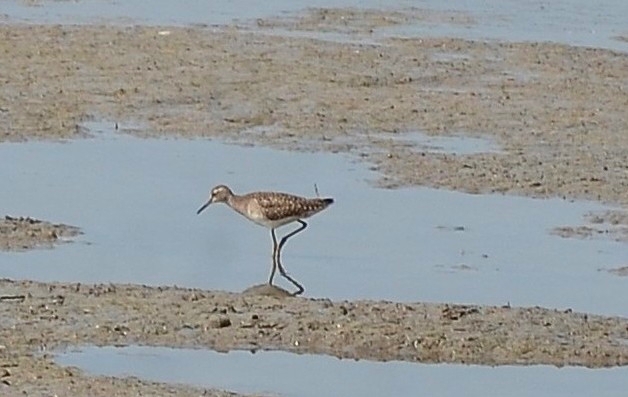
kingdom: Animalia
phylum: Chordata
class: Aves
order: Charadriiformes
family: Scolopacidae
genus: Tringa
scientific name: Tringa glareola
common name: Wood sandpiper
